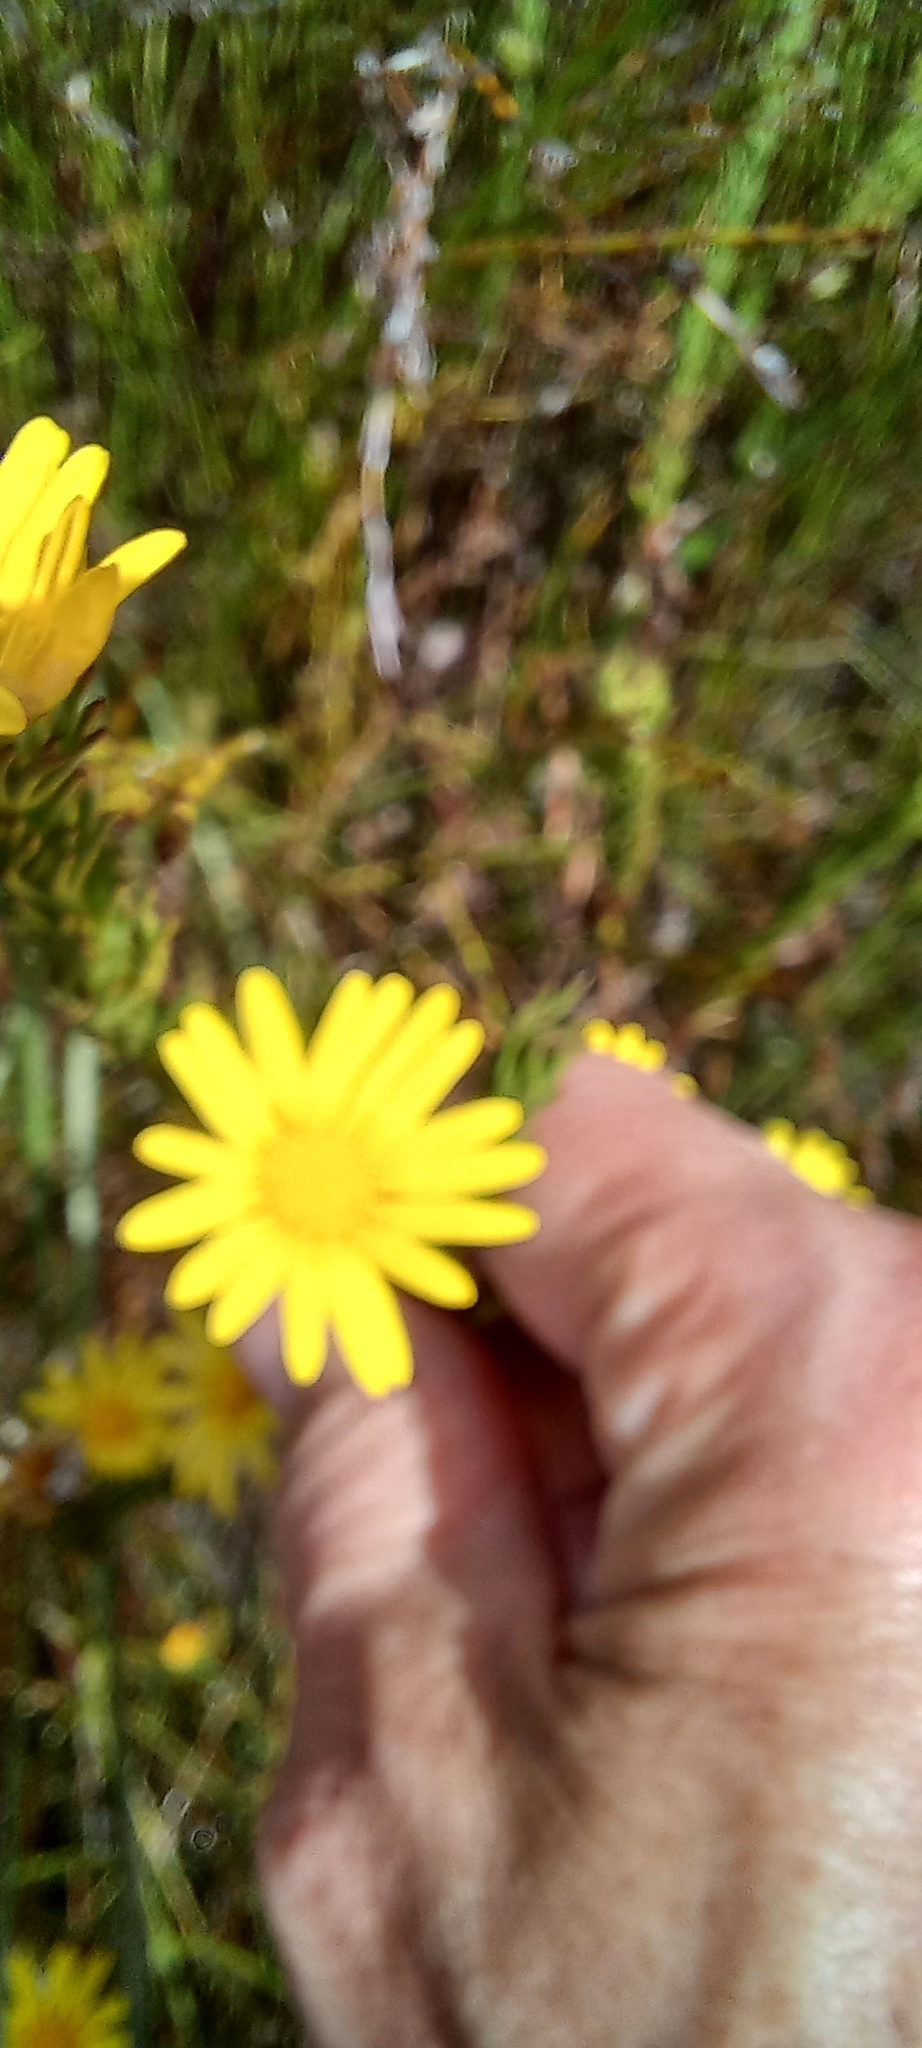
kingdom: Plantae
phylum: Tracheophyta
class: Magnoliopsida
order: Asterales
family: Asteraceae
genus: Ursinia
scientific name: Ursinia quinquepartita
